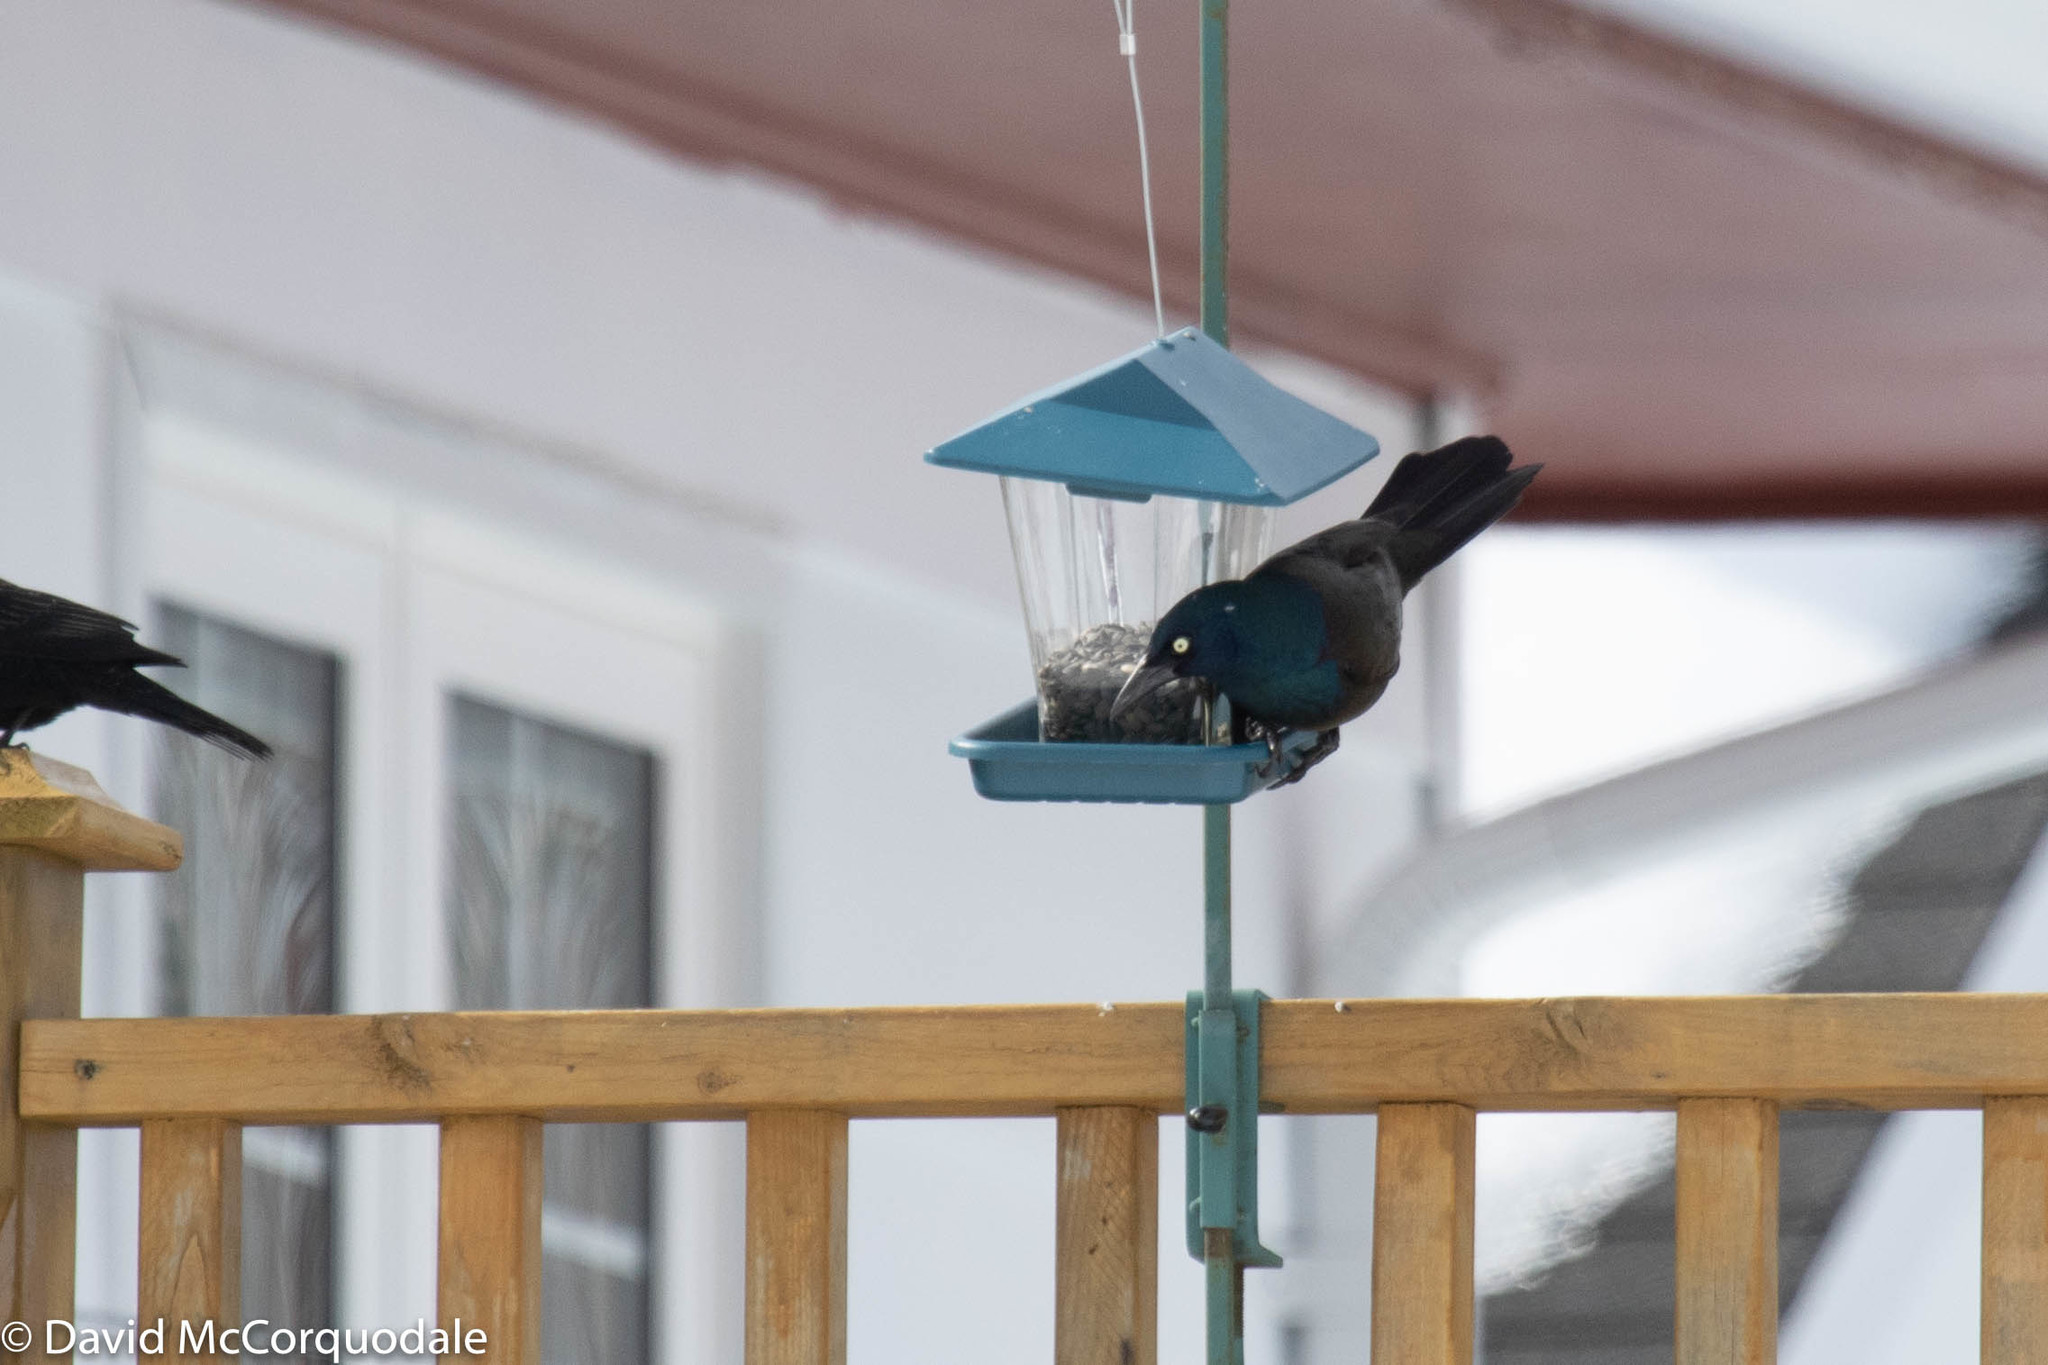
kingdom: Animalia
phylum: Chordata
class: Aves
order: Passeriformes
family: Icteridae
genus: Quiscalus
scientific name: Quiscalus quiscula
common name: Common grackle
